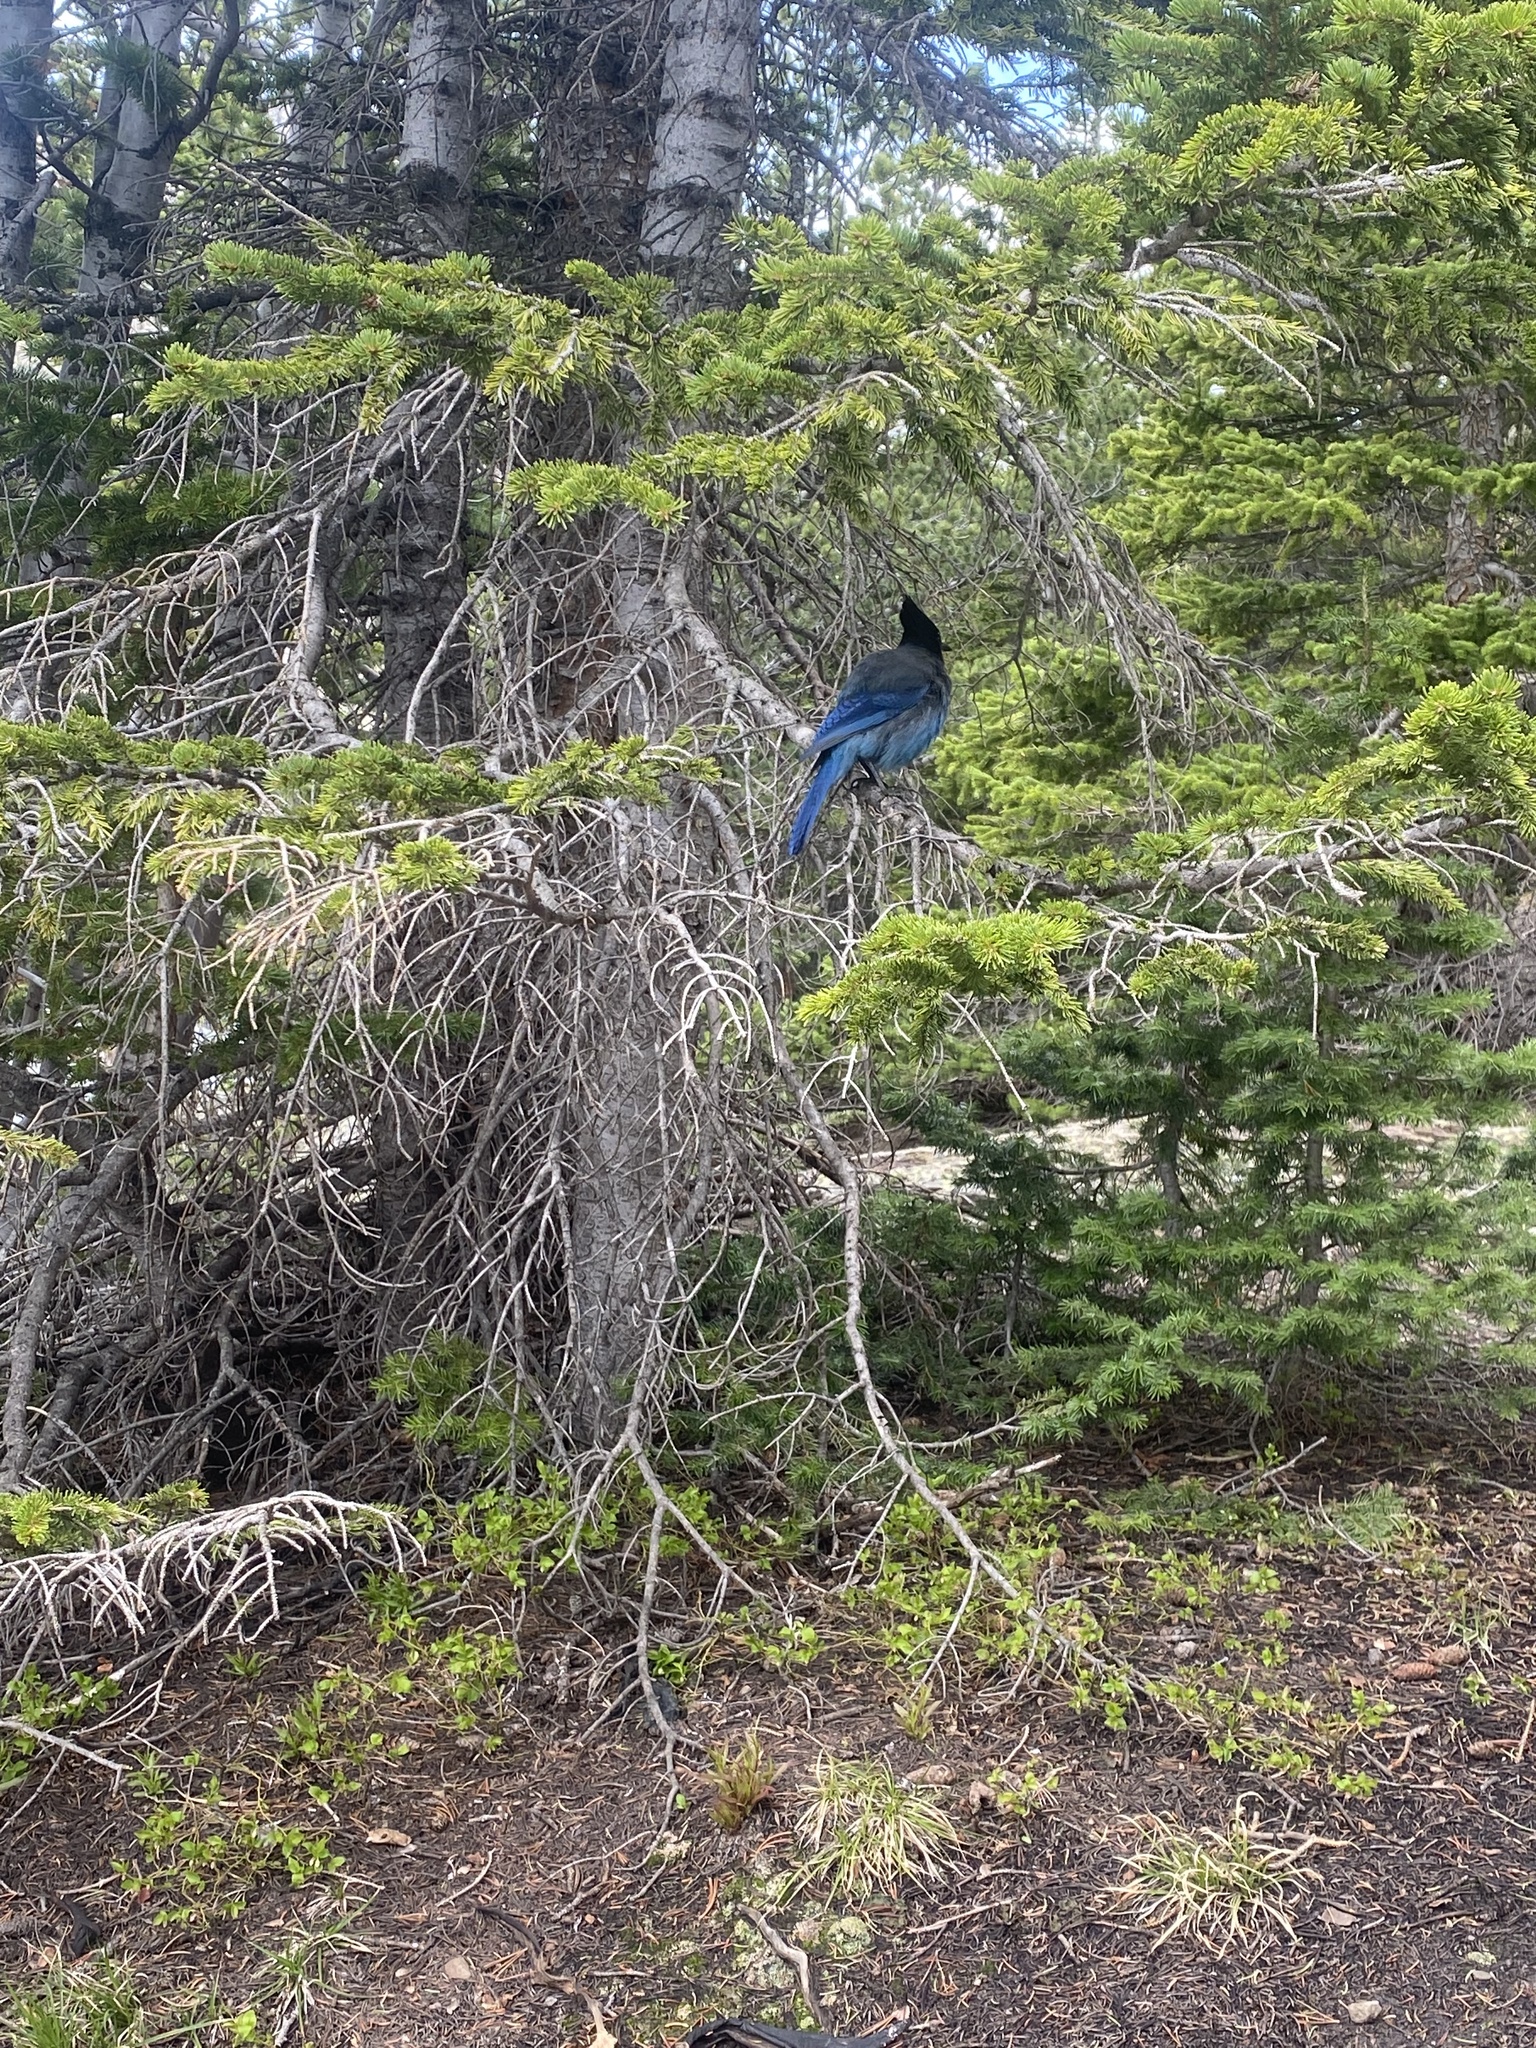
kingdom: Animalia
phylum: Chordata
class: Aves
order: Passeriformes
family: Corvidae
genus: Cyanocitta
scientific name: Cyanocitta stelleri
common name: Steller's jay
